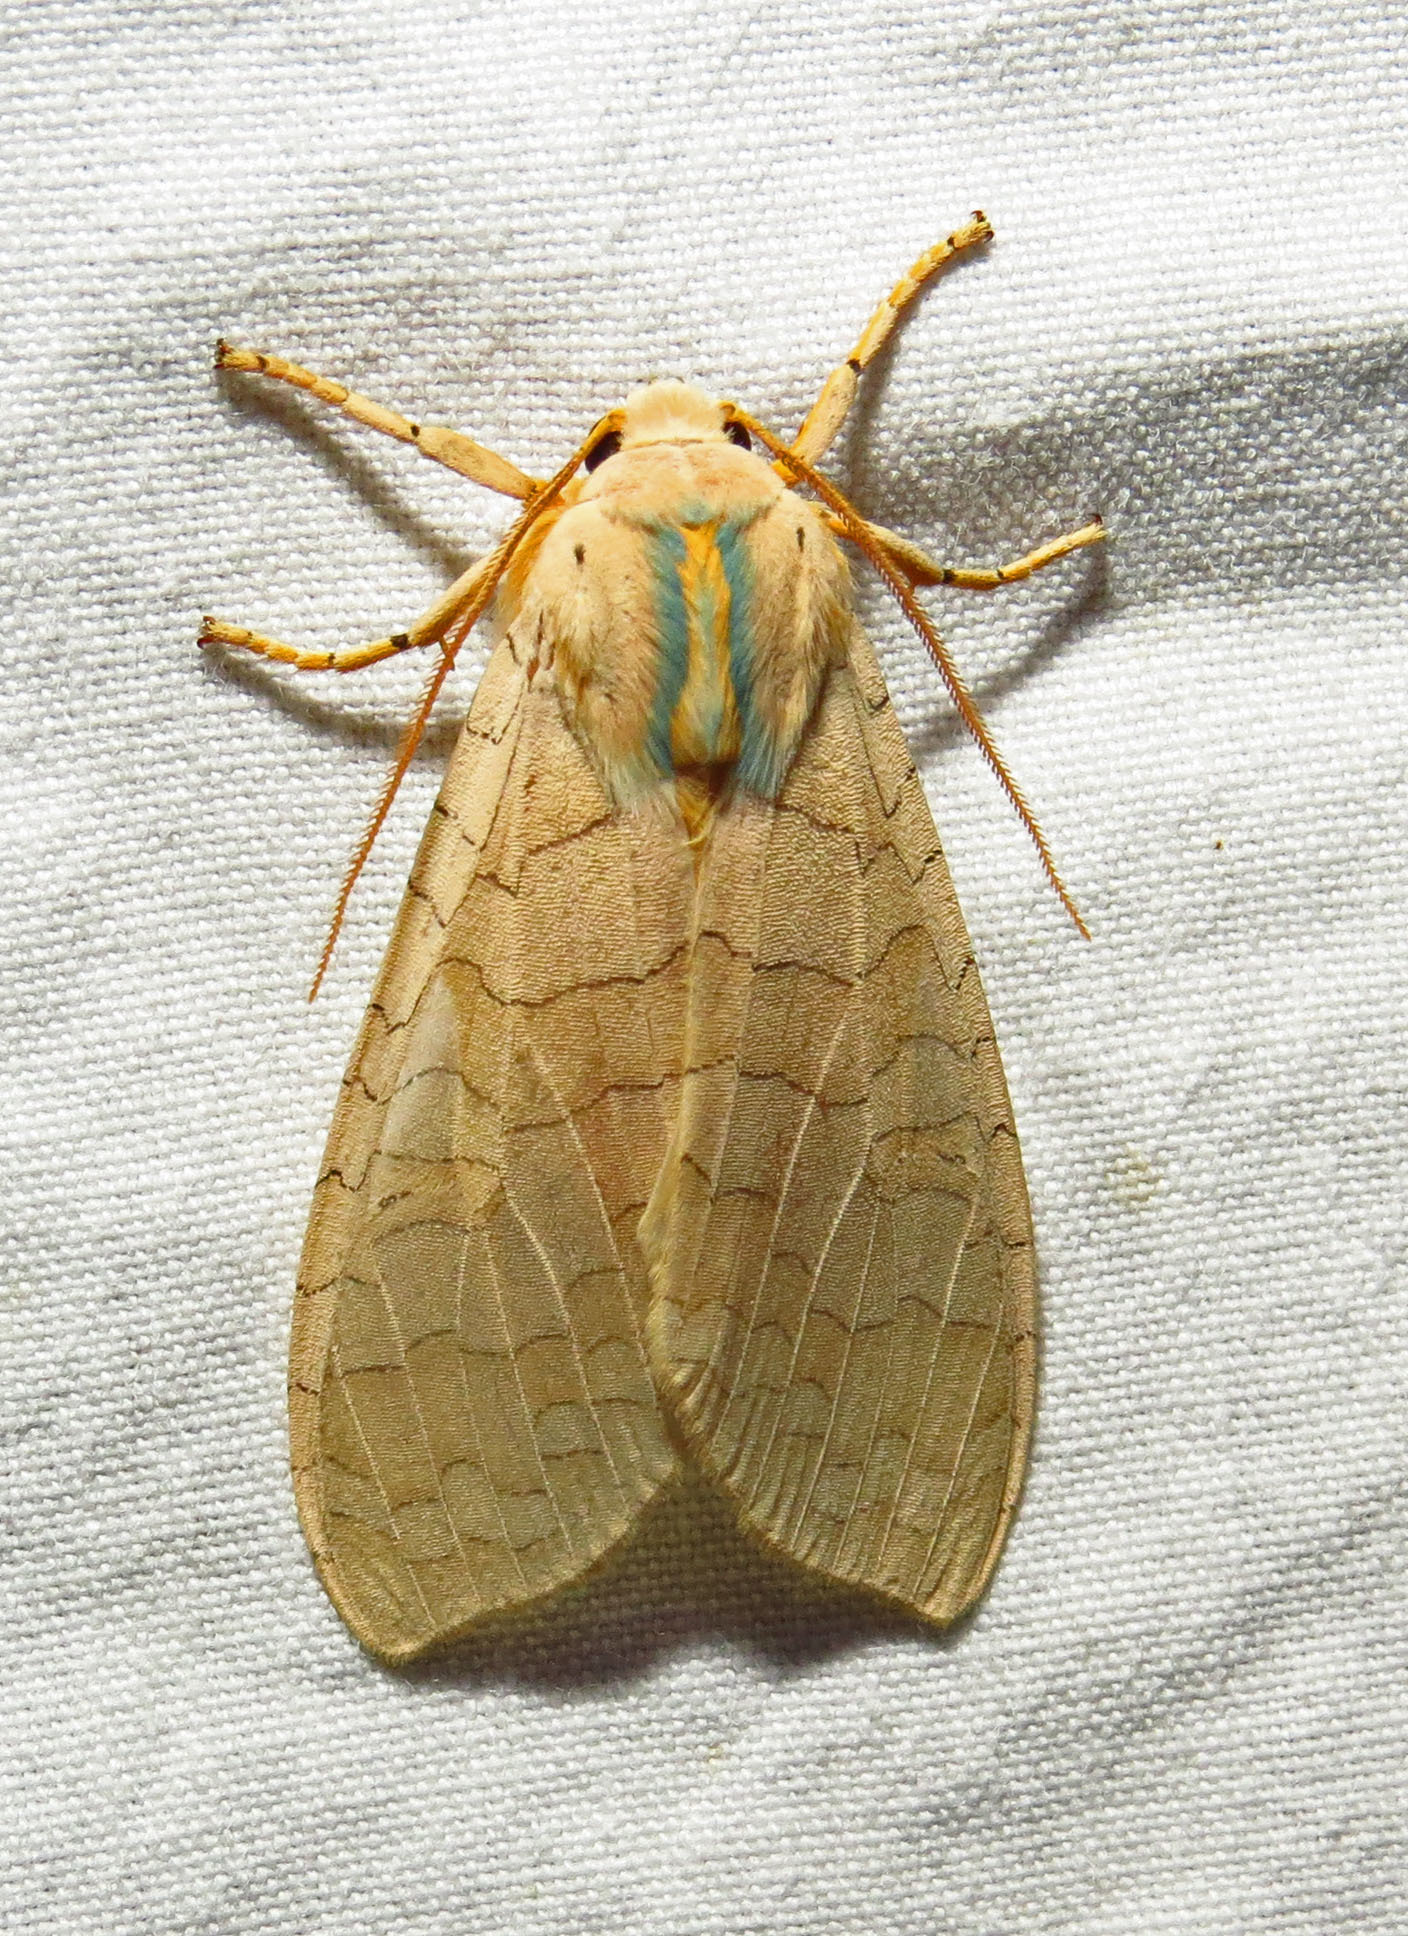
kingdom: Animalia
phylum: Arthropoda
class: Insecta
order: Lepidoptera
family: Erebidae
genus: Halysidota
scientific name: Halysidota
